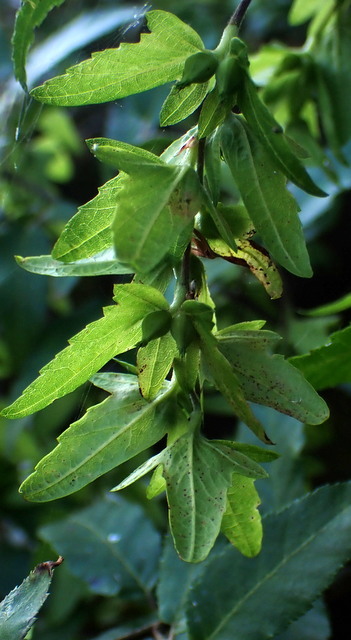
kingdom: Plantae
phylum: Tracheophyta
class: Magnoliopsida
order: Fagales
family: Betulaceae
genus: Carpinus
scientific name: Carpinus caroliniana
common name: American hornbeam
